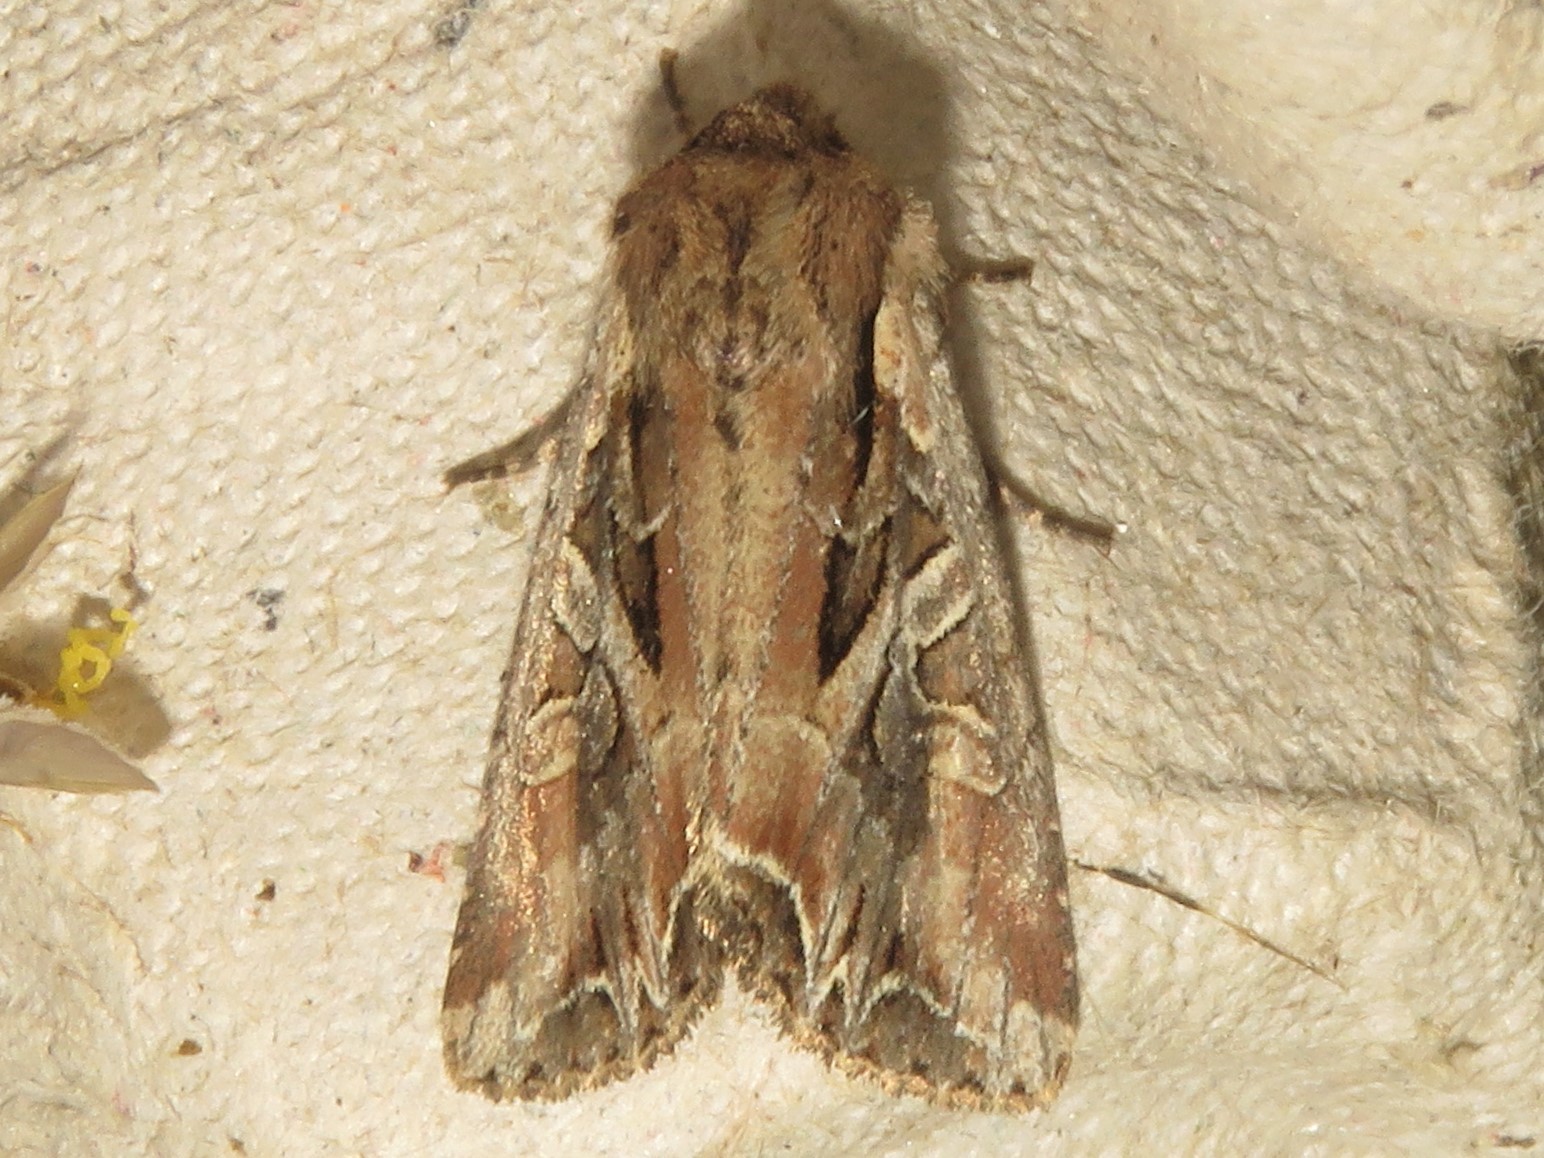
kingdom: Animalia
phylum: Arthropoda
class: Insecta
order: Lepidoptera
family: Noctuidae
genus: Lacanobia
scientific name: Lacanobia atlantica
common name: Atlantic arches moth
